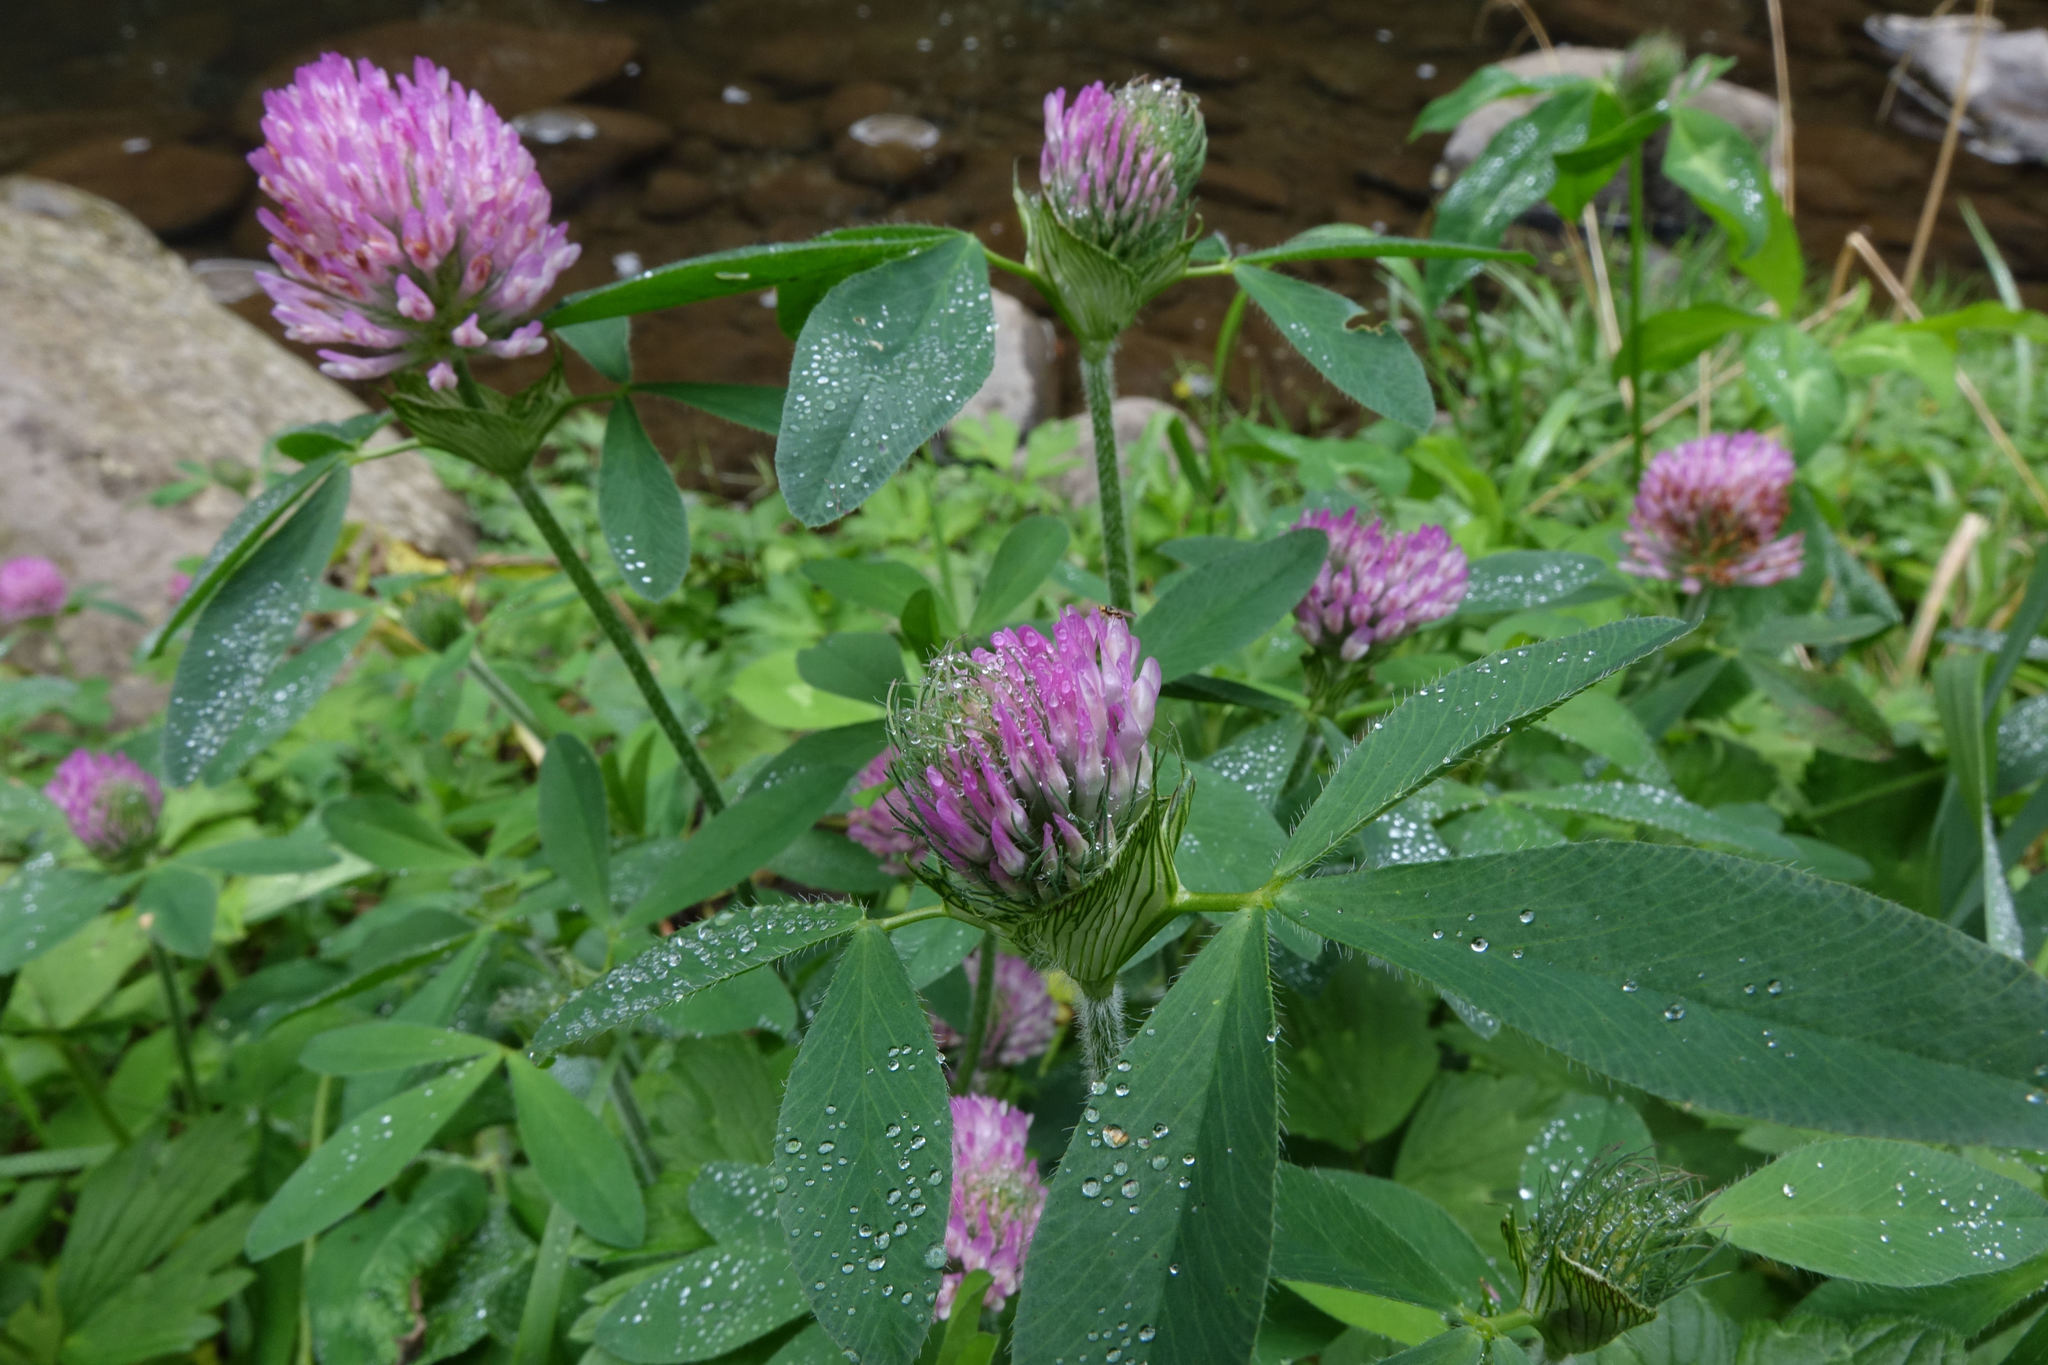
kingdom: Plantae
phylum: Tracheophyta
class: Magnoliopsida
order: Fabales
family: Fabaceae
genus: Trifolium
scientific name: Trifolium pratense
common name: Red clover
